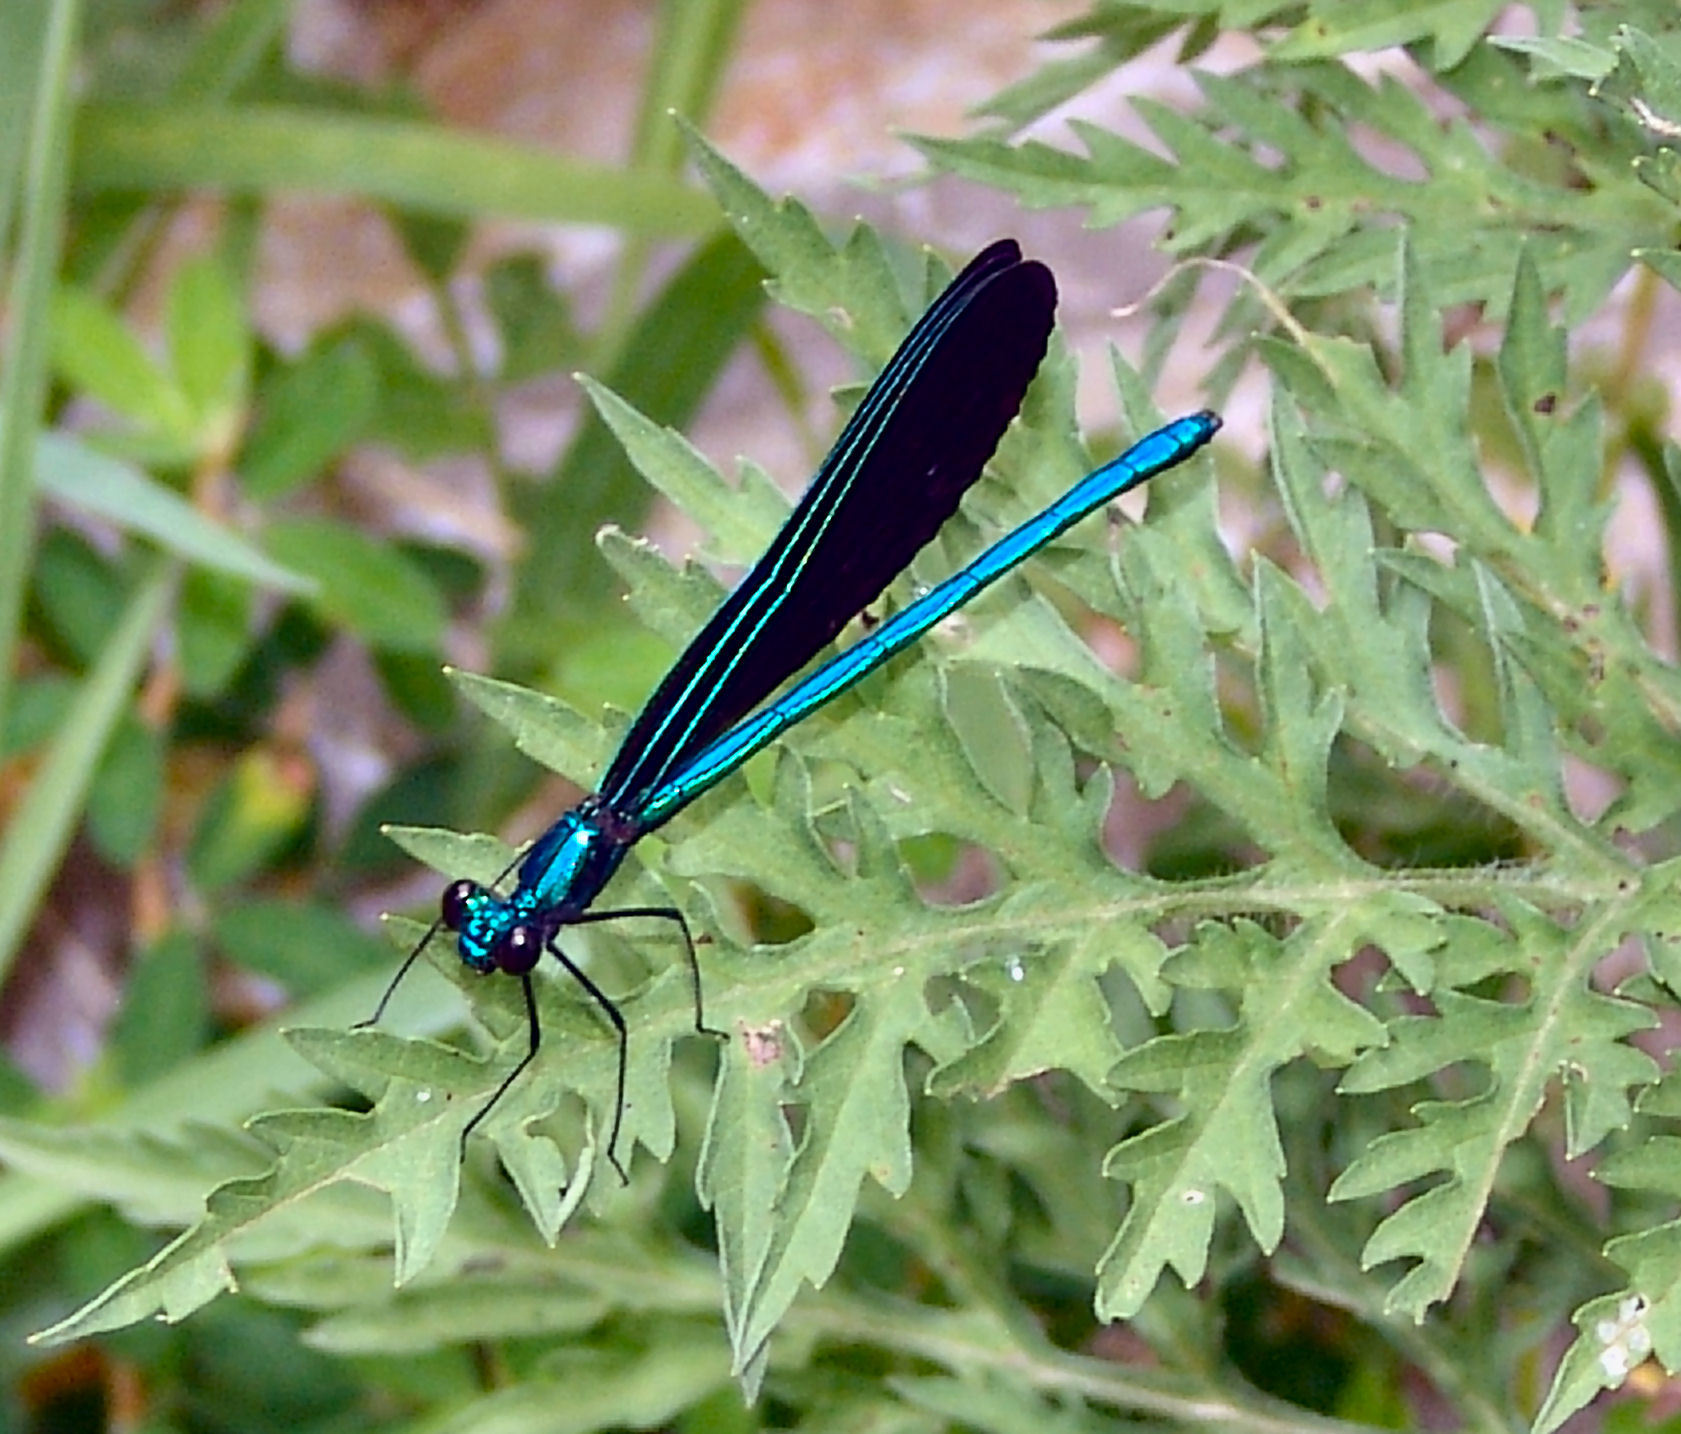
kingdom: Animalia
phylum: Arthropoda
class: Insecta
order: Odonata
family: Calopterygidae
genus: Calopteryx
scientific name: Calopteryx maculata
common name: Ebony jewelwing
